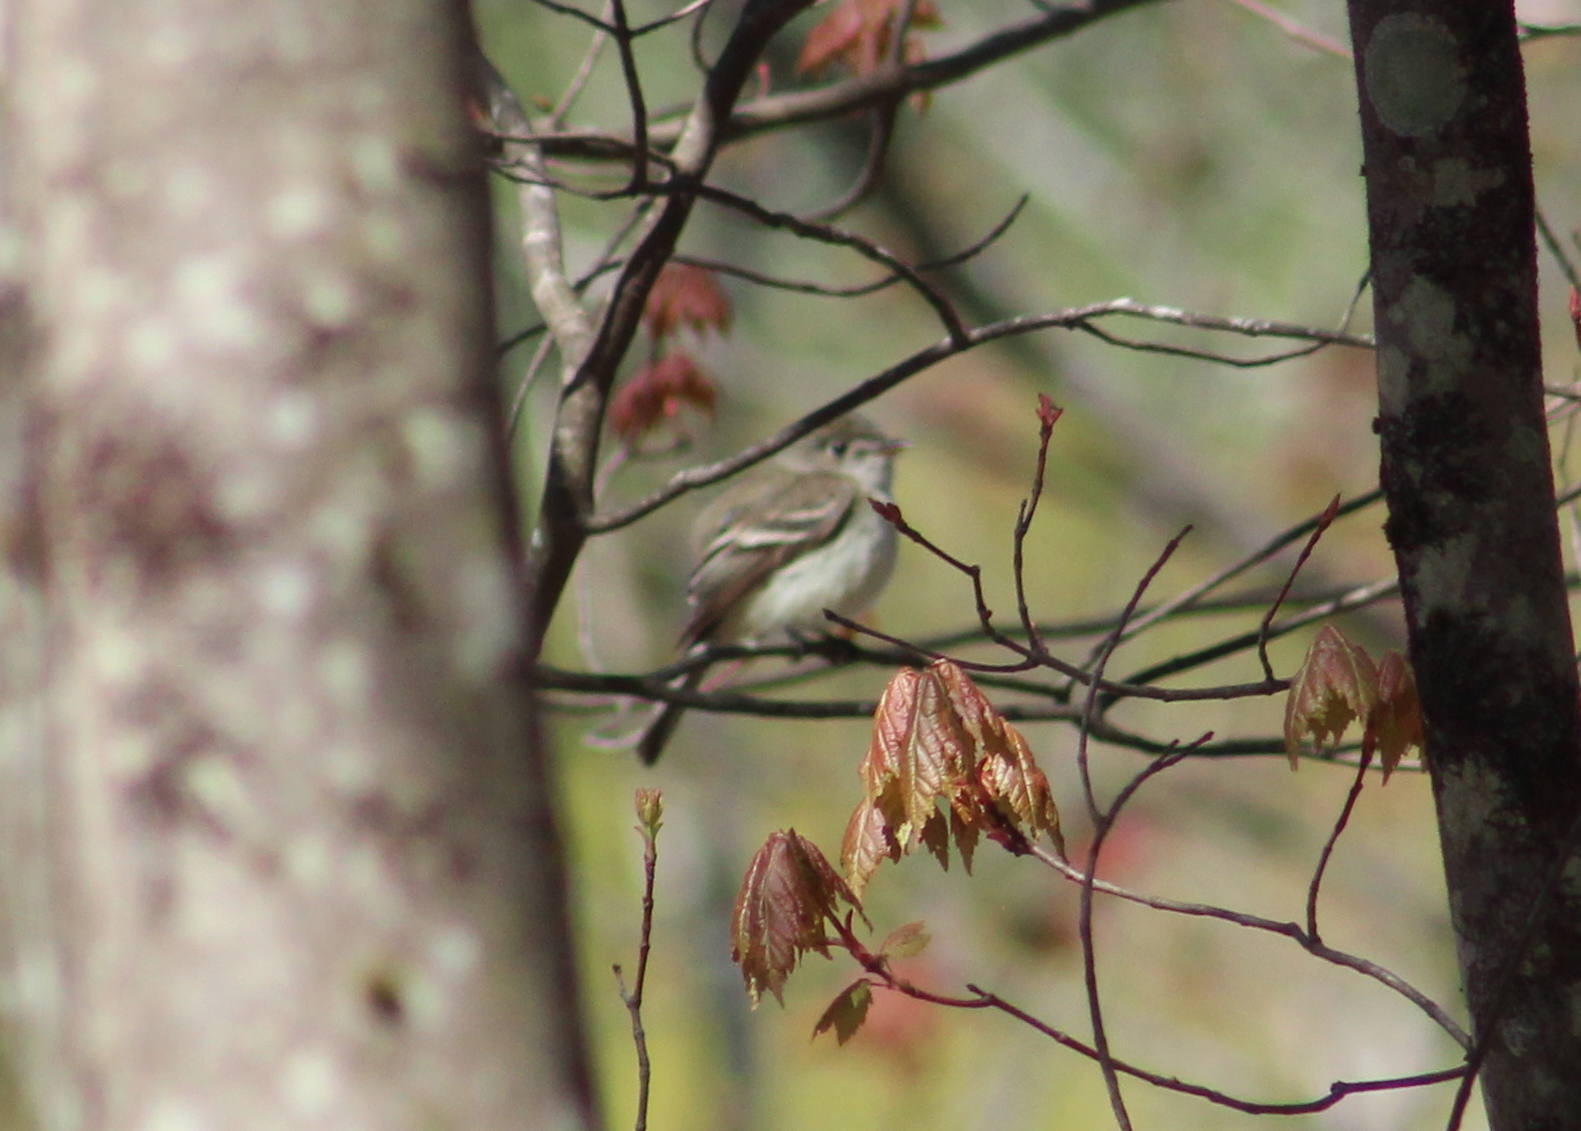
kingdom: Animalia
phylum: Chordata
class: Aves
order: Passeriformes
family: Tyrannidae
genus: Empidonax
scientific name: Empidonax minimus
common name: Least flycatcher
